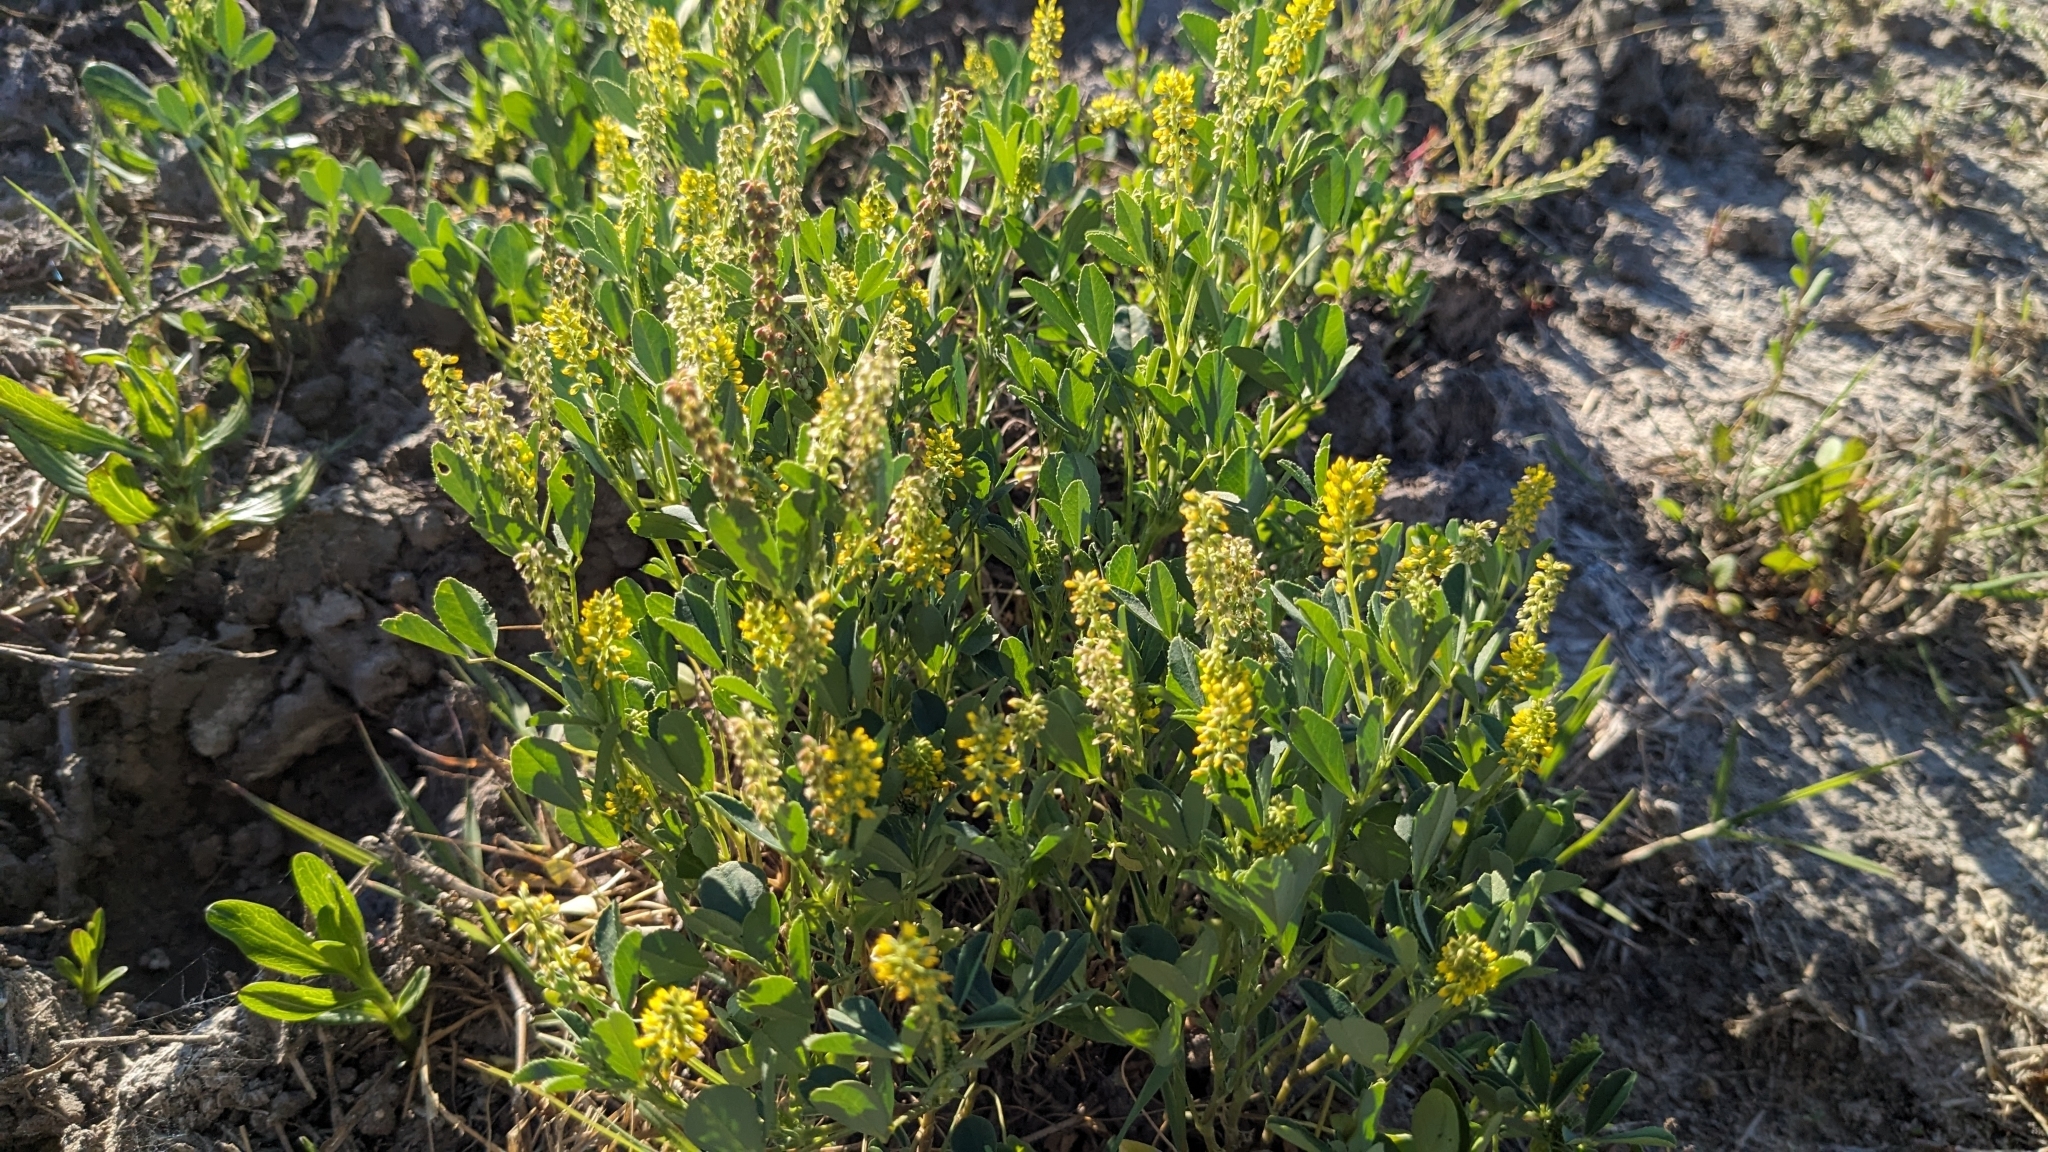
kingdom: Plantae
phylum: Tracheophyta
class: Magnoliopsida
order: Fabales
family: Fabaceae
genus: Melilotus
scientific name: Melilotus indicus
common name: Small melilot
